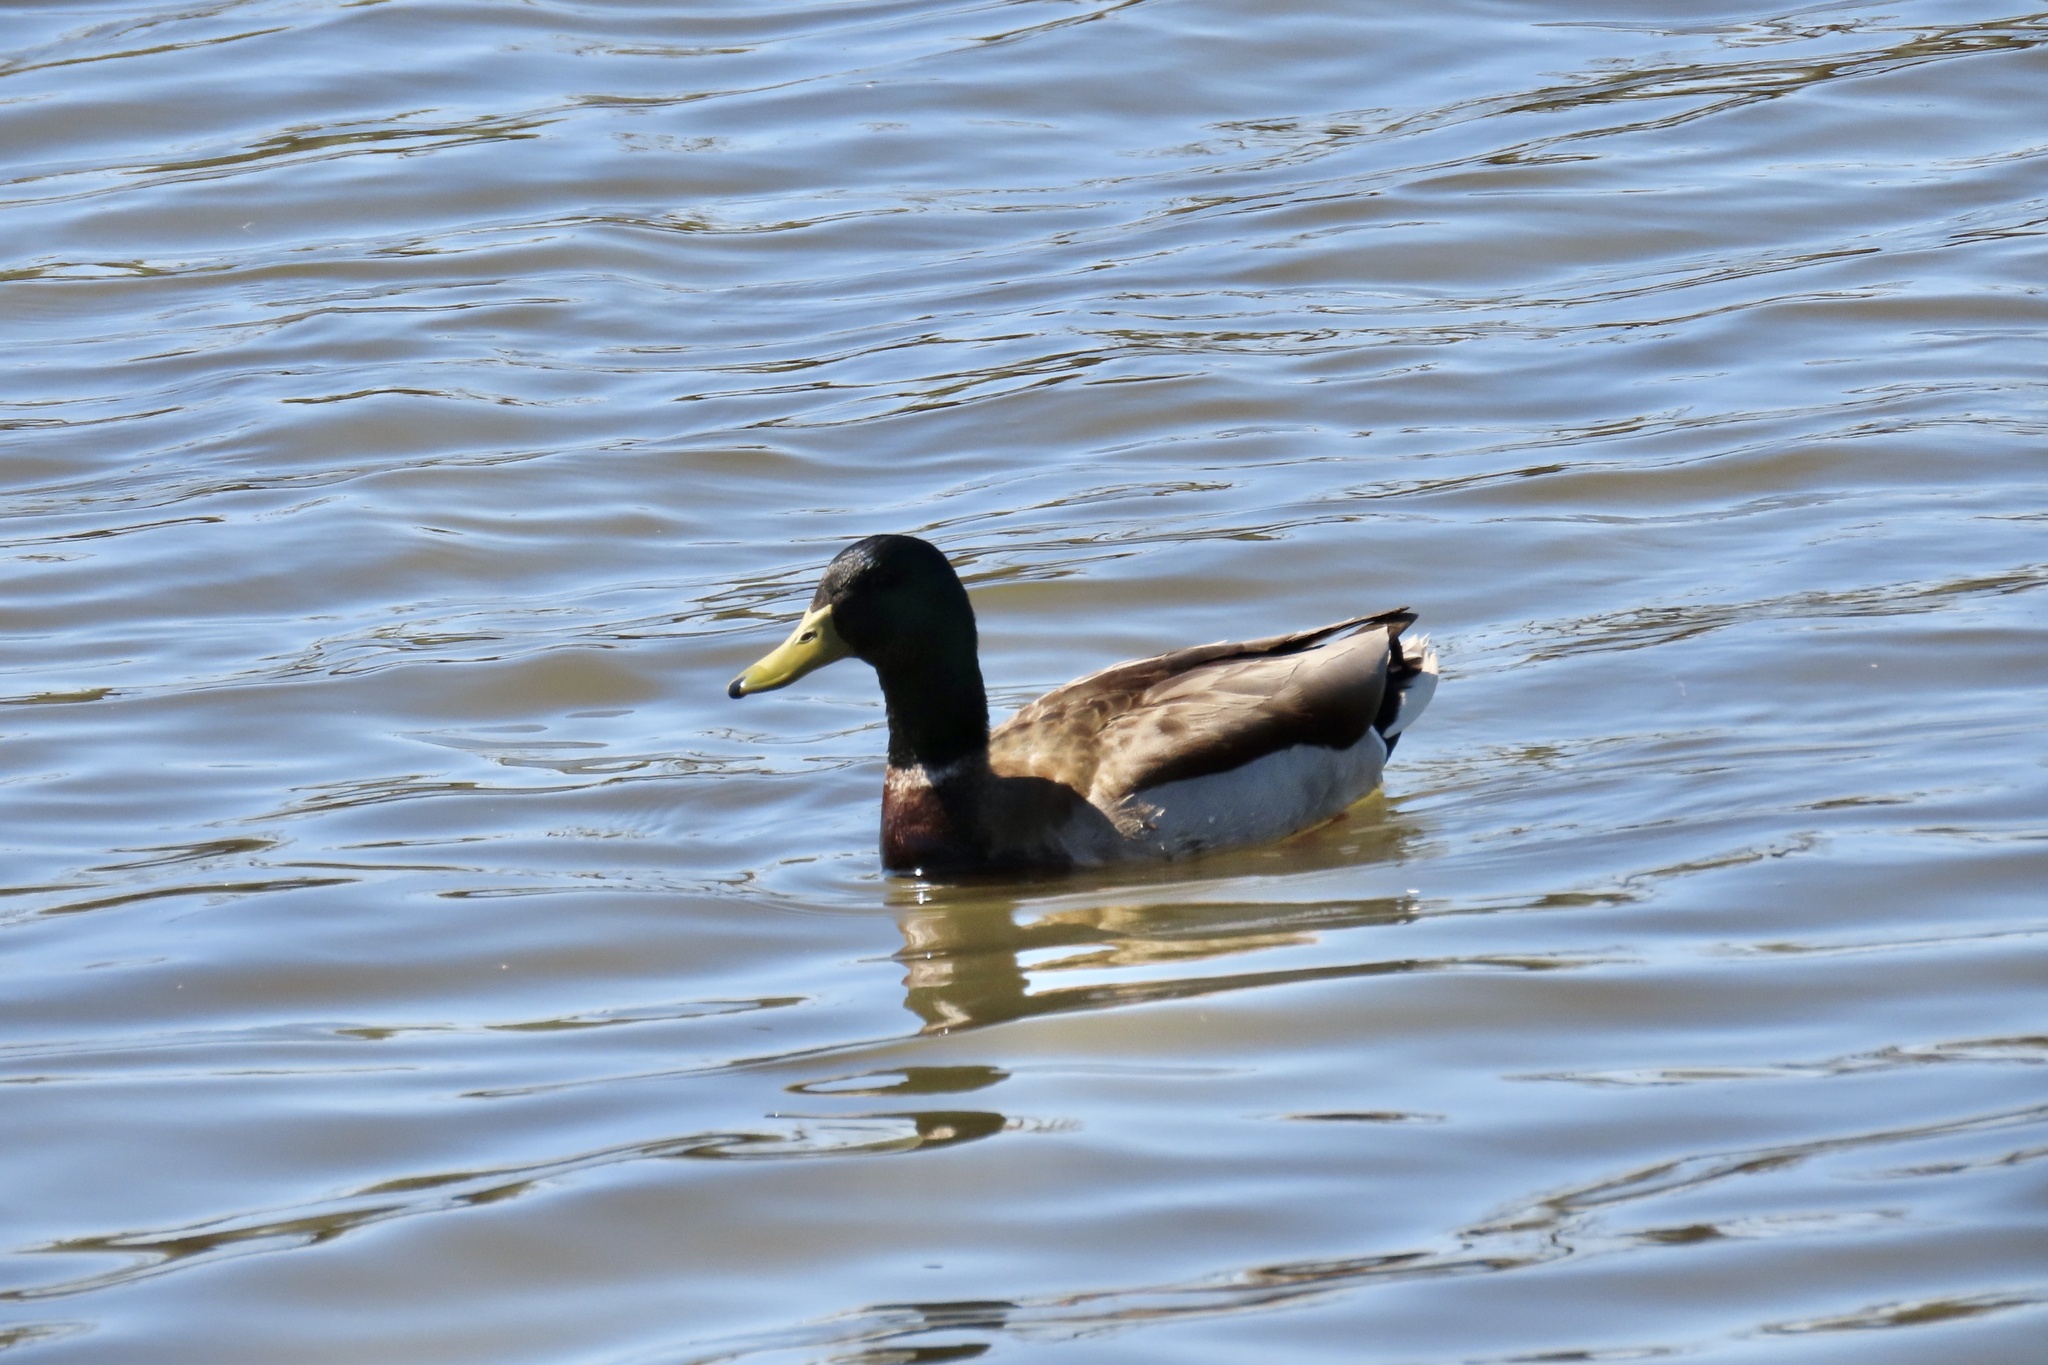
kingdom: Animalia
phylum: Chordata
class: Aves
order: Anseriformes
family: Anatidae
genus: Anas
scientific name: Anas platyrhynchos
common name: Mallard
